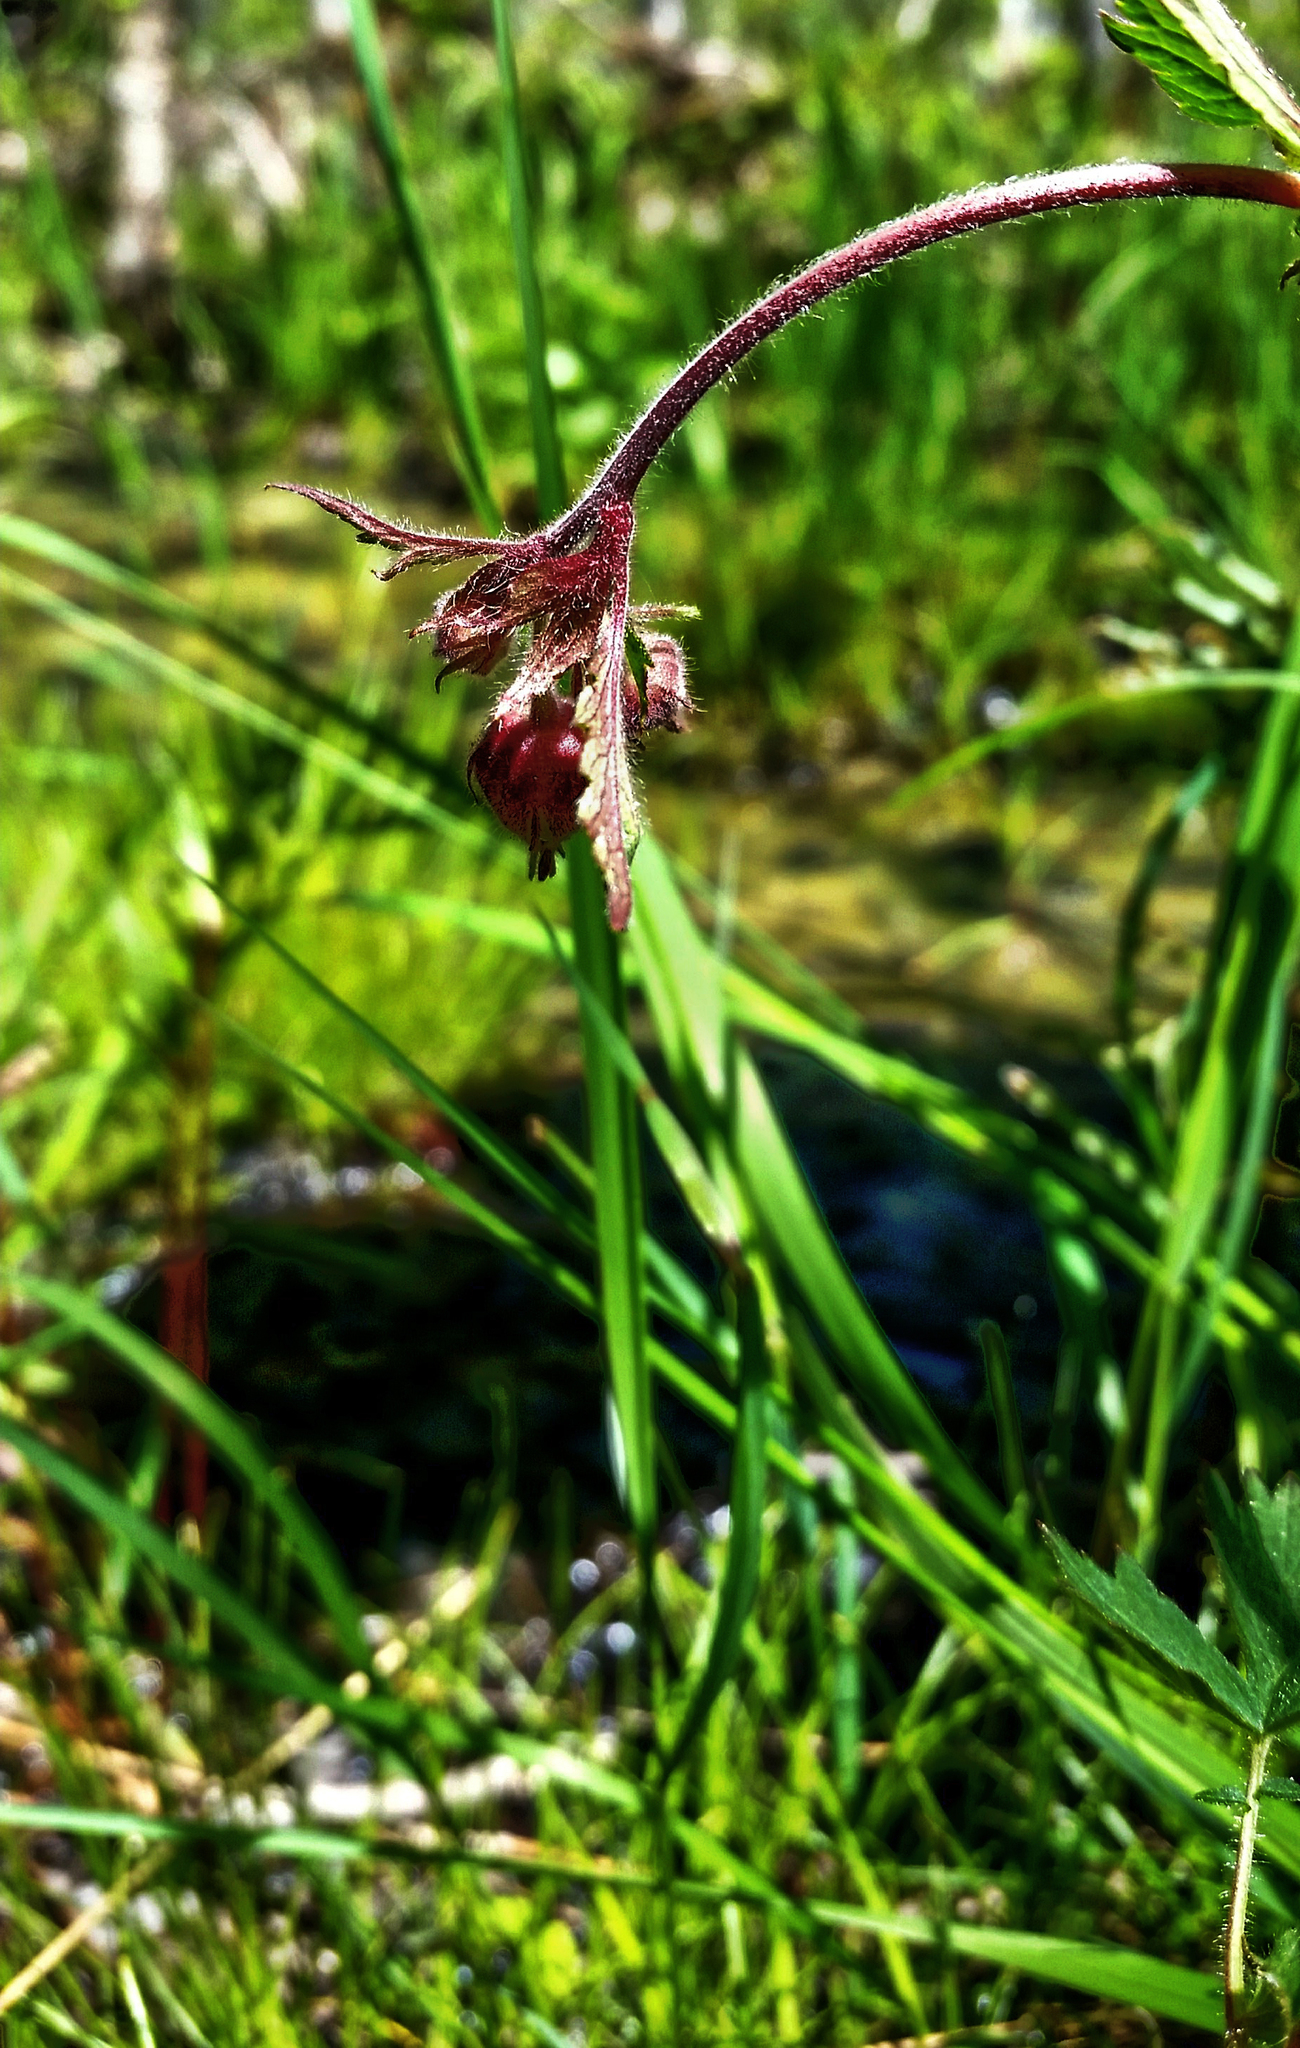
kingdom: Plantae
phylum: Tracheophyta
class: Magnoliopsida
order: Rosales
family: Rosaceae
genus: Geum
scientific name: Geum rivale
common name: Water avens
